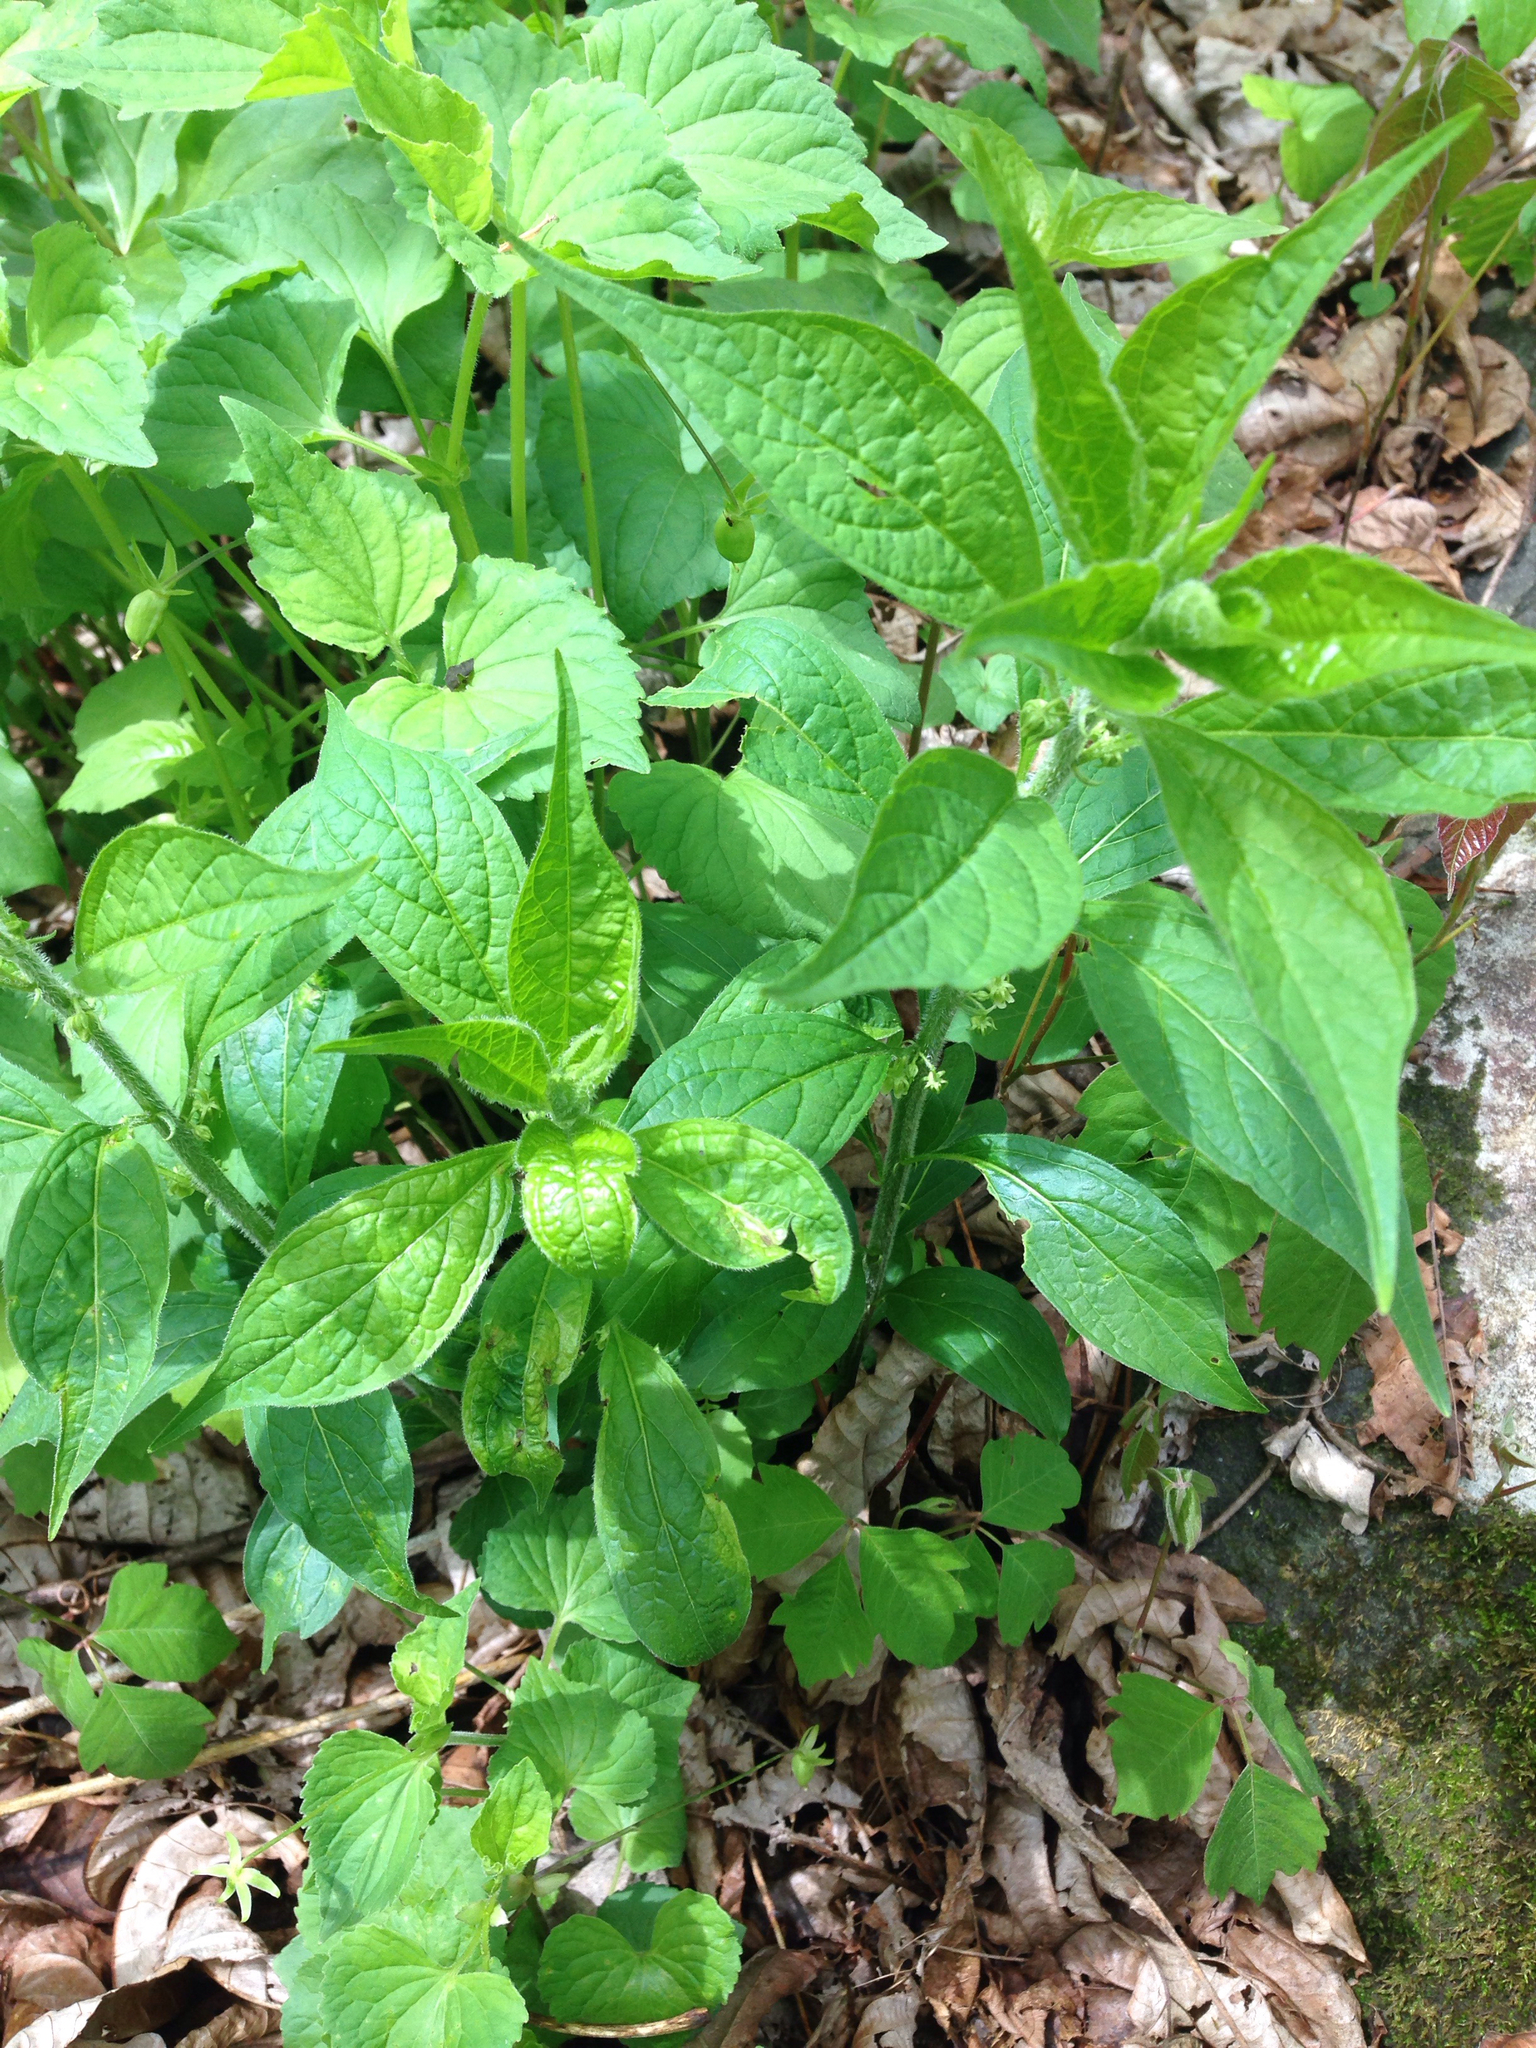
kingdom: Plantae
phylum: Tracheophyta
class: Magnoliopsida
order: Malpighiales
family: Violaceae
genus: Cubelium
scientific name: Cubelium concolor
